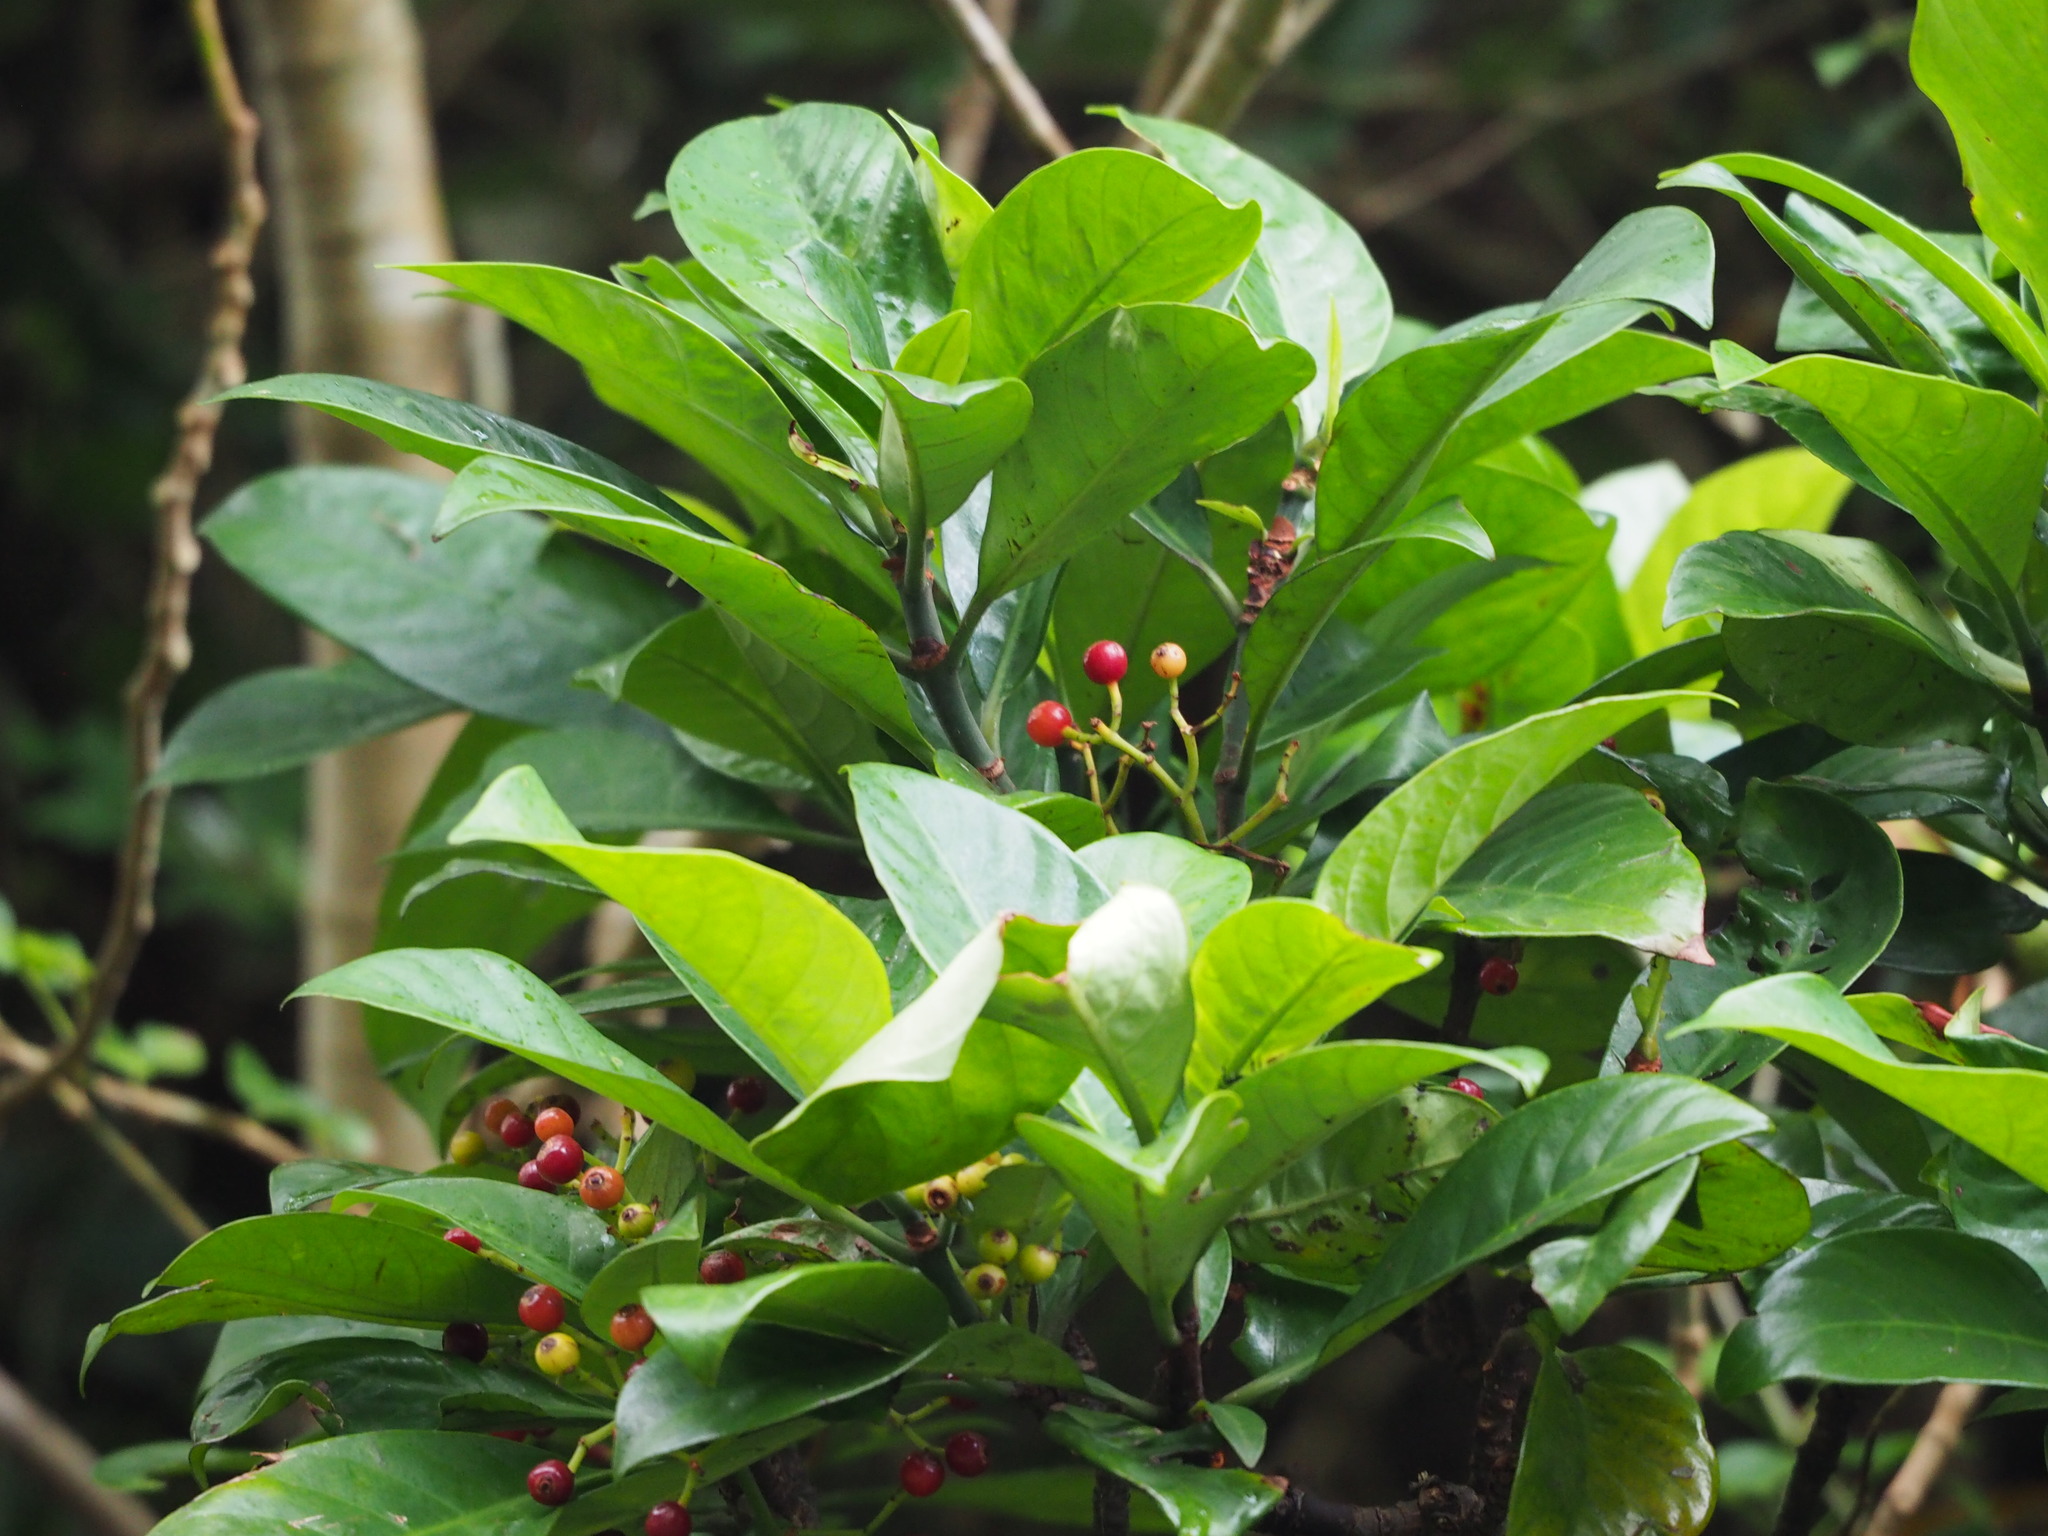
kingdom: Plantae
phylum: Tracheophyta
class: Magnoliopsida
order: Gentianales
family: Rubiaceae
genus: Psychotria
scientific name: Psychotria asiatica
